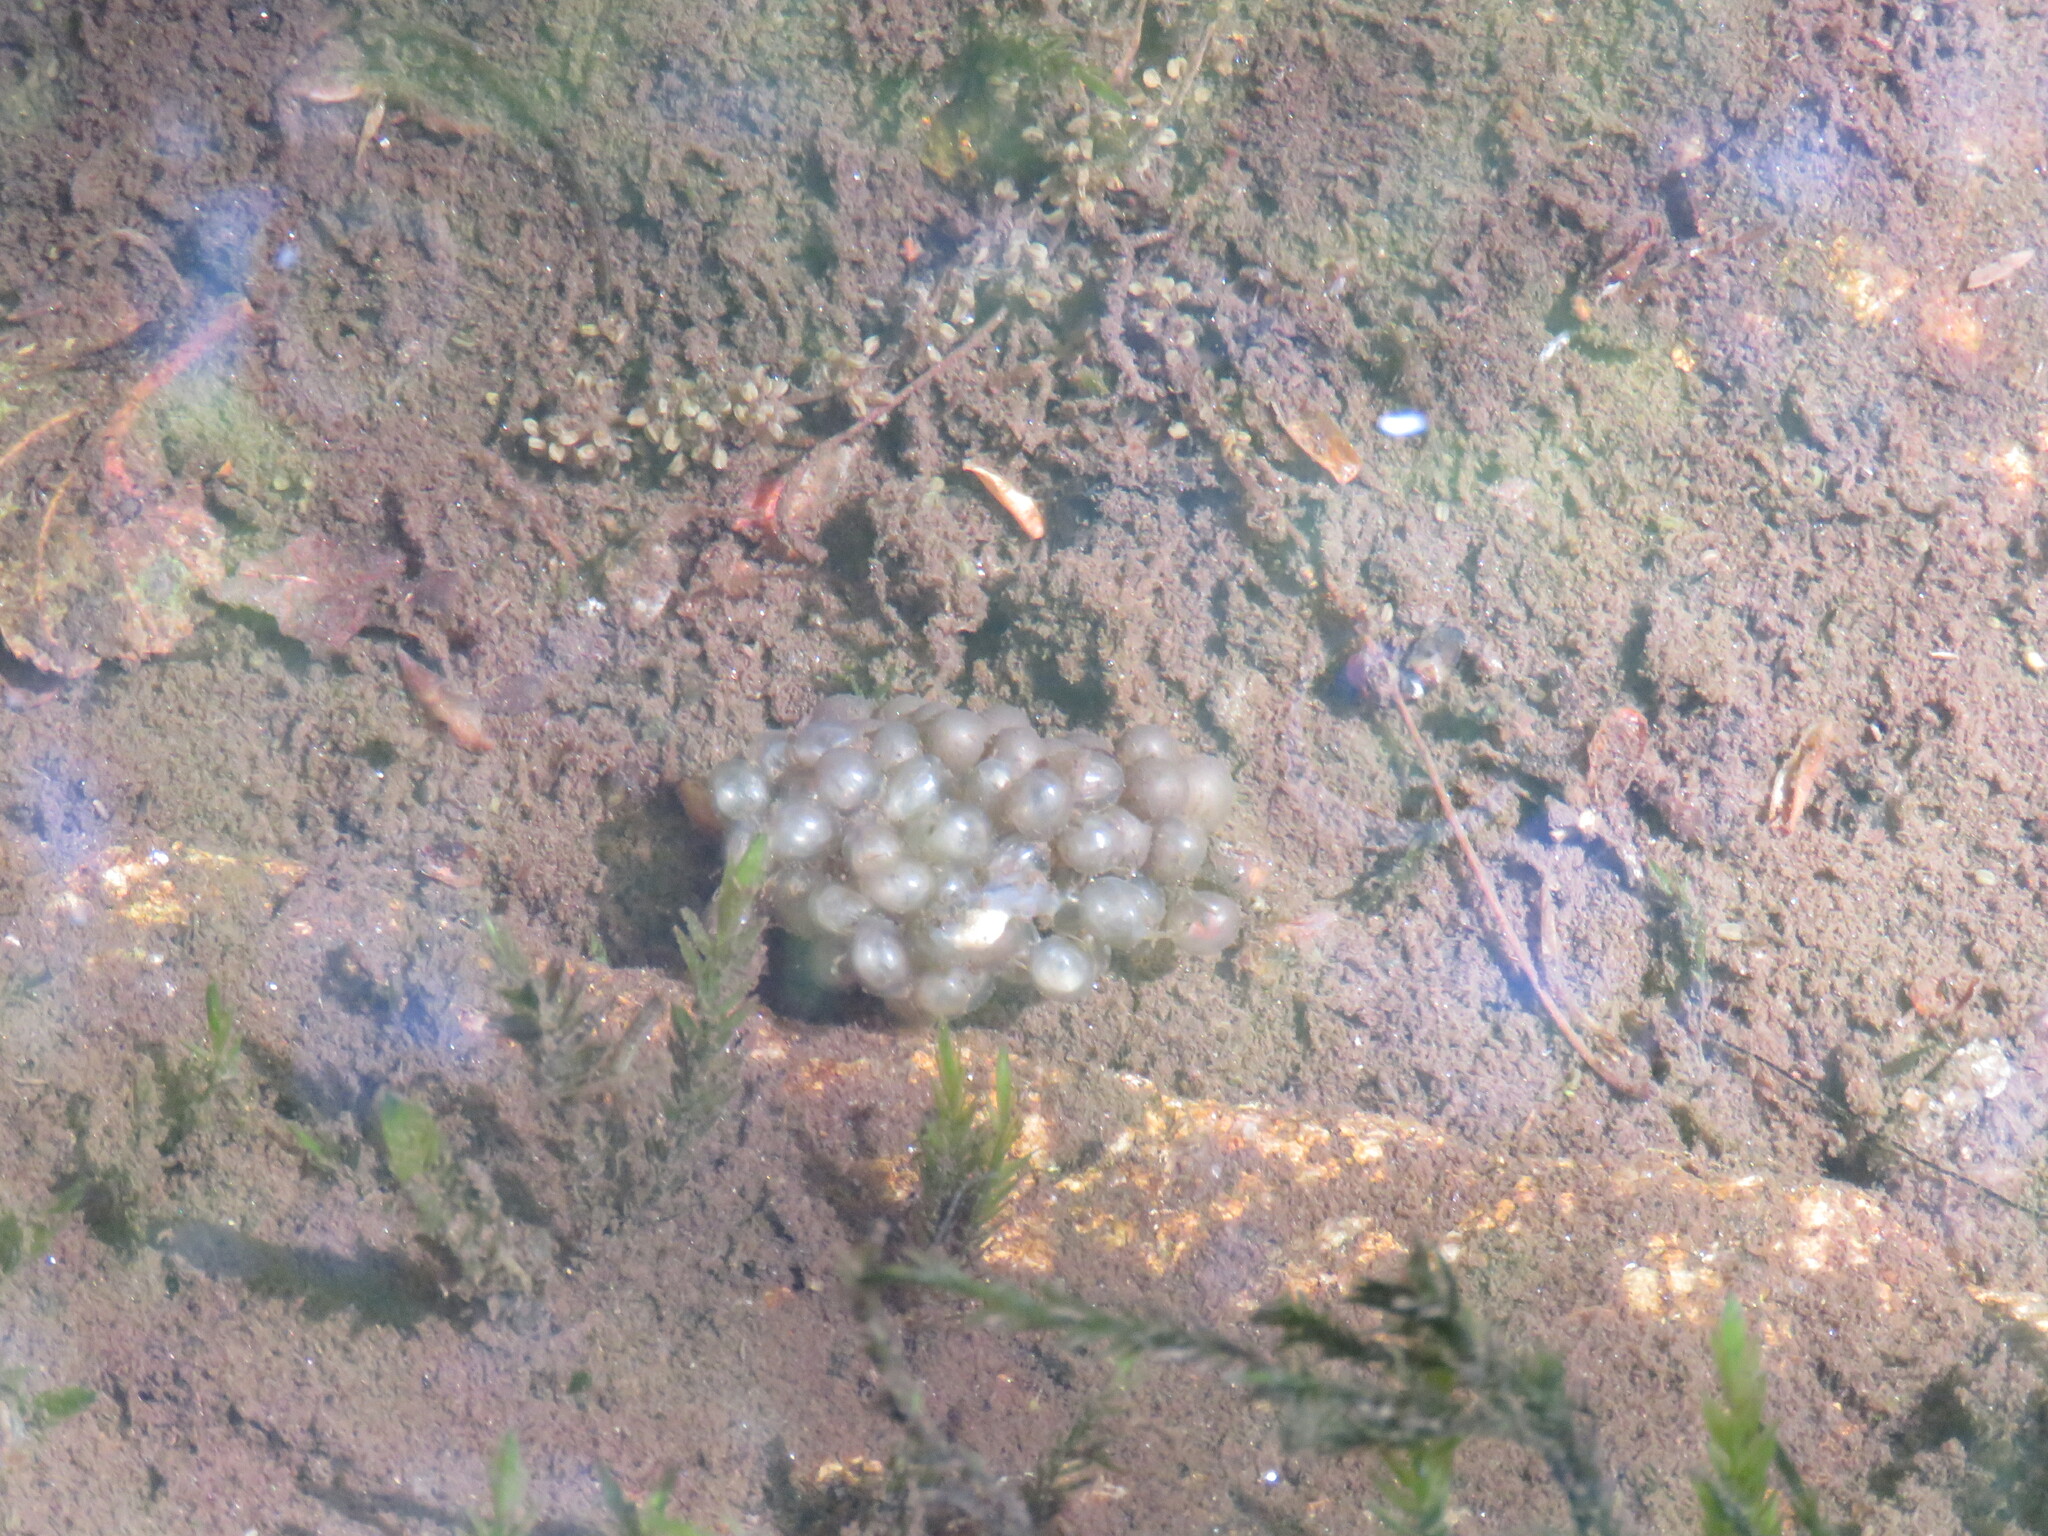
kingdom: Animalia
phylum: Chordata
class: Amphibia
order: Anura
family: Alytidae
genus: Alytes
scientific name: Alytes obstetricans
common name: Midwife toad
